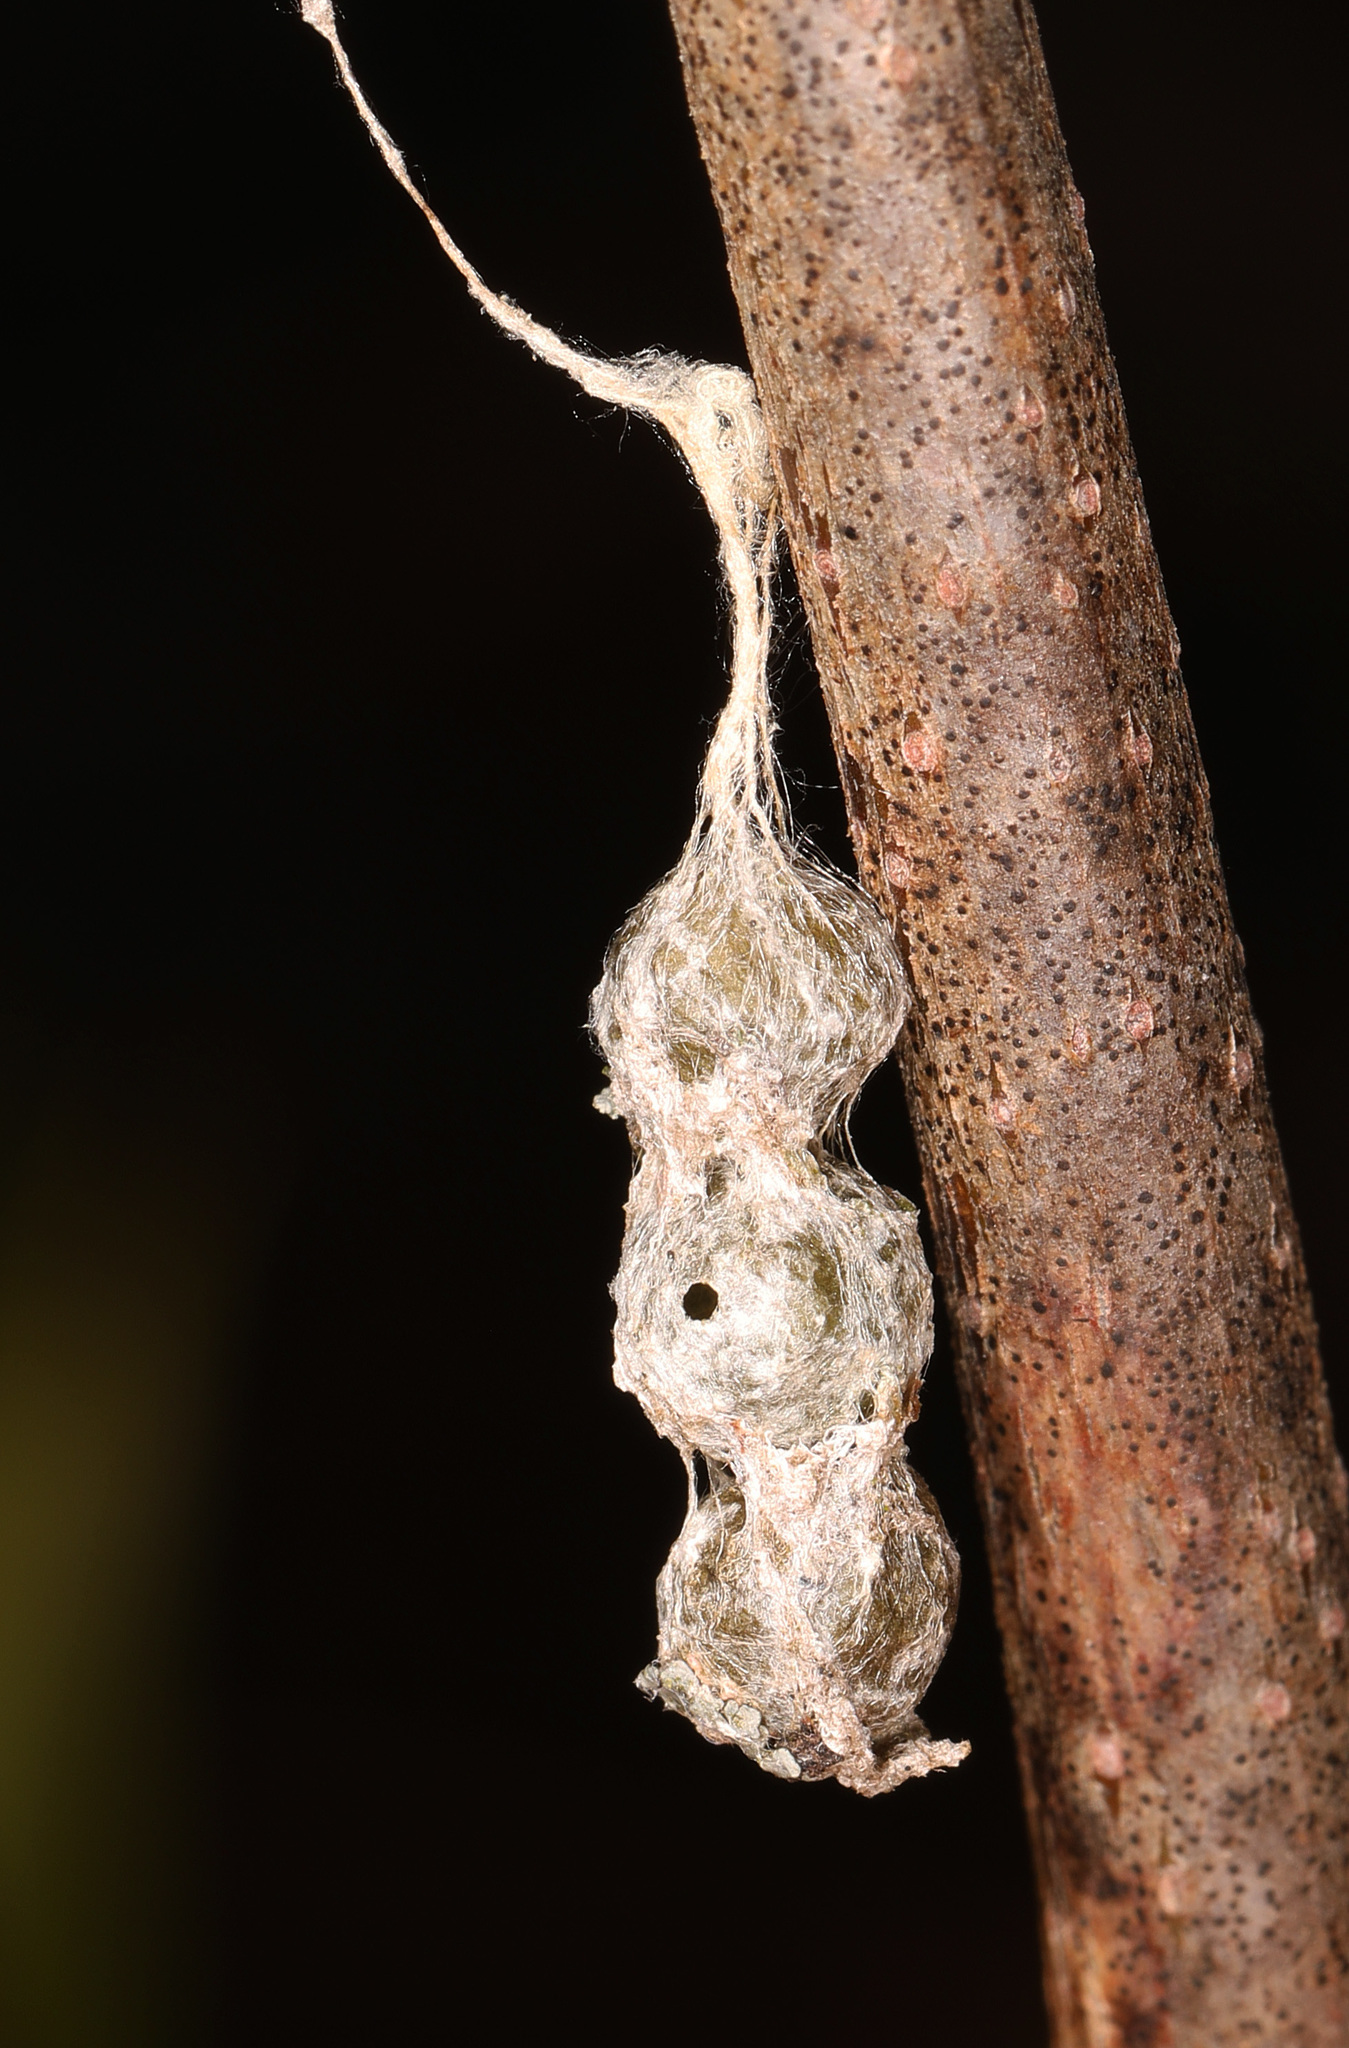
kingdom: Animalia
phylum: Arthropoda
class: Arachnida
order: Araneae
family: Araneidae
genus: Mecynogea
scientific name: Mecynogea lemniscata
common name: Orb weavers
